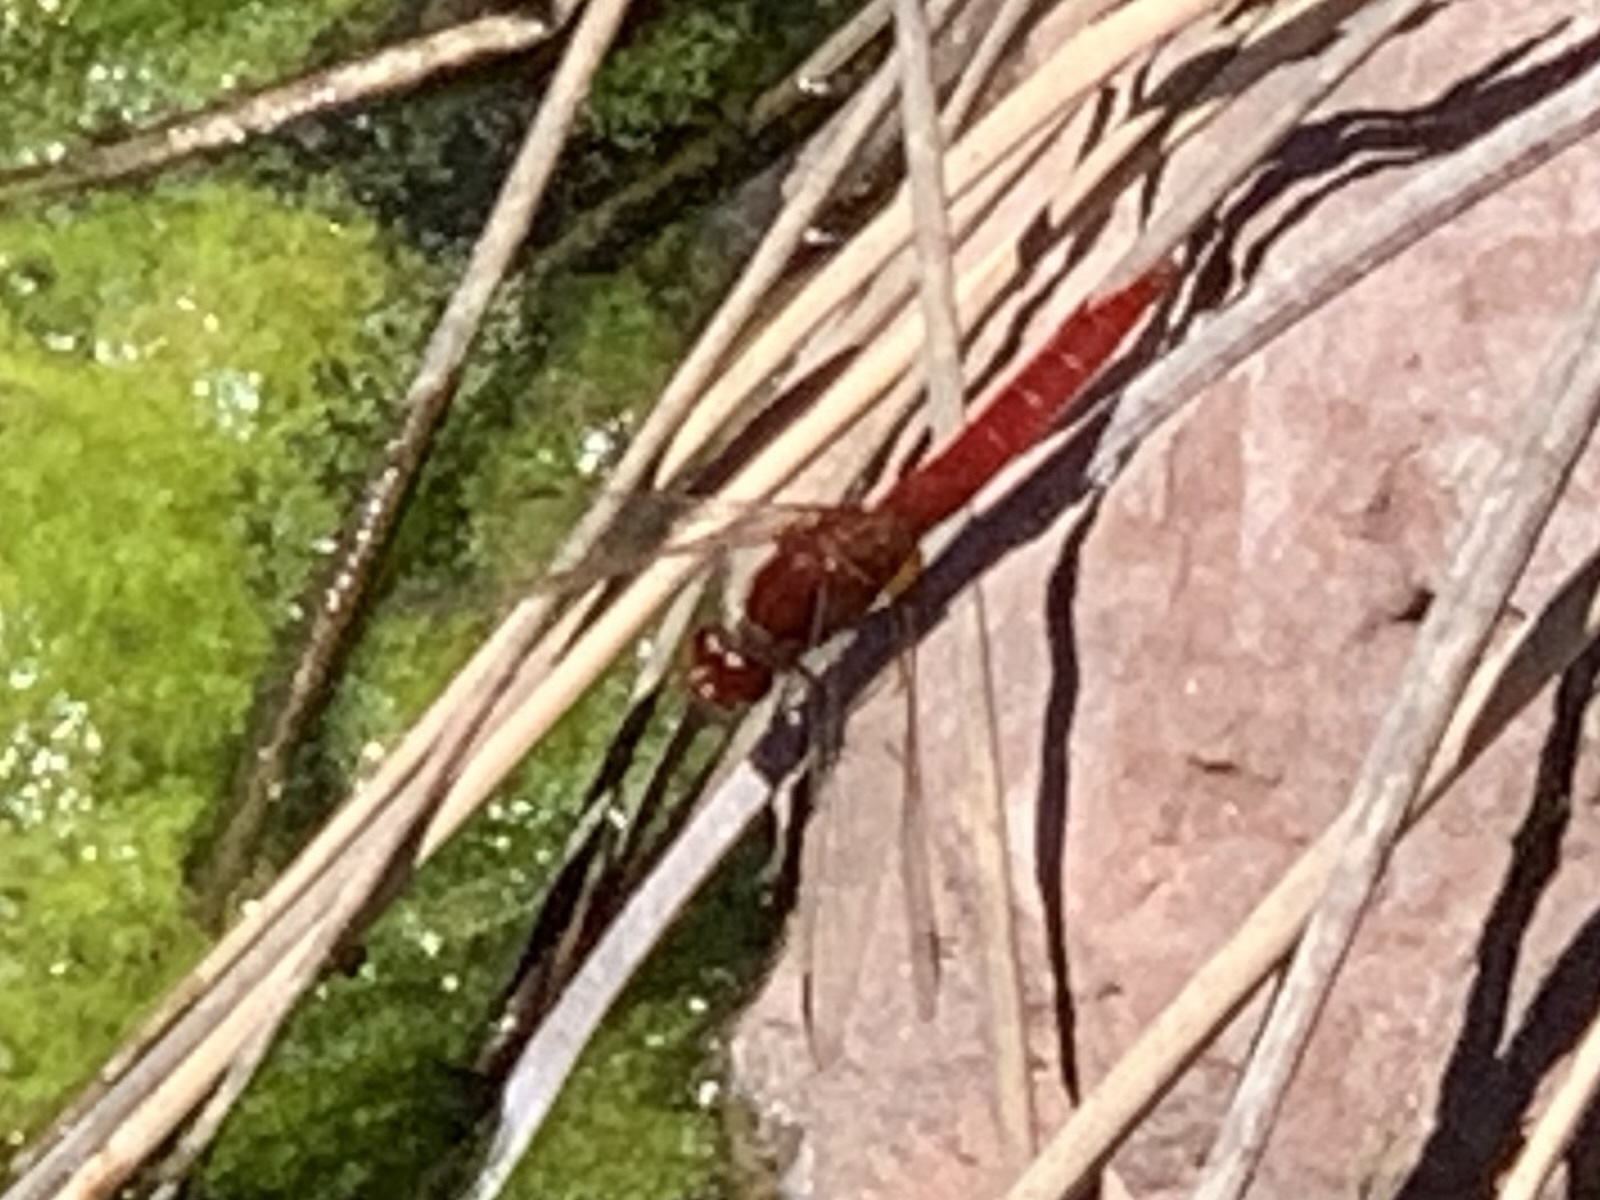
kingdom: Animalia
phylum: Arthropoda
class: Insecta
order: Odonata
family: Libellulidae
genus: Crocothemis
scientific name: Crocothemis erythraea
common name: Scarlet dragonfly
